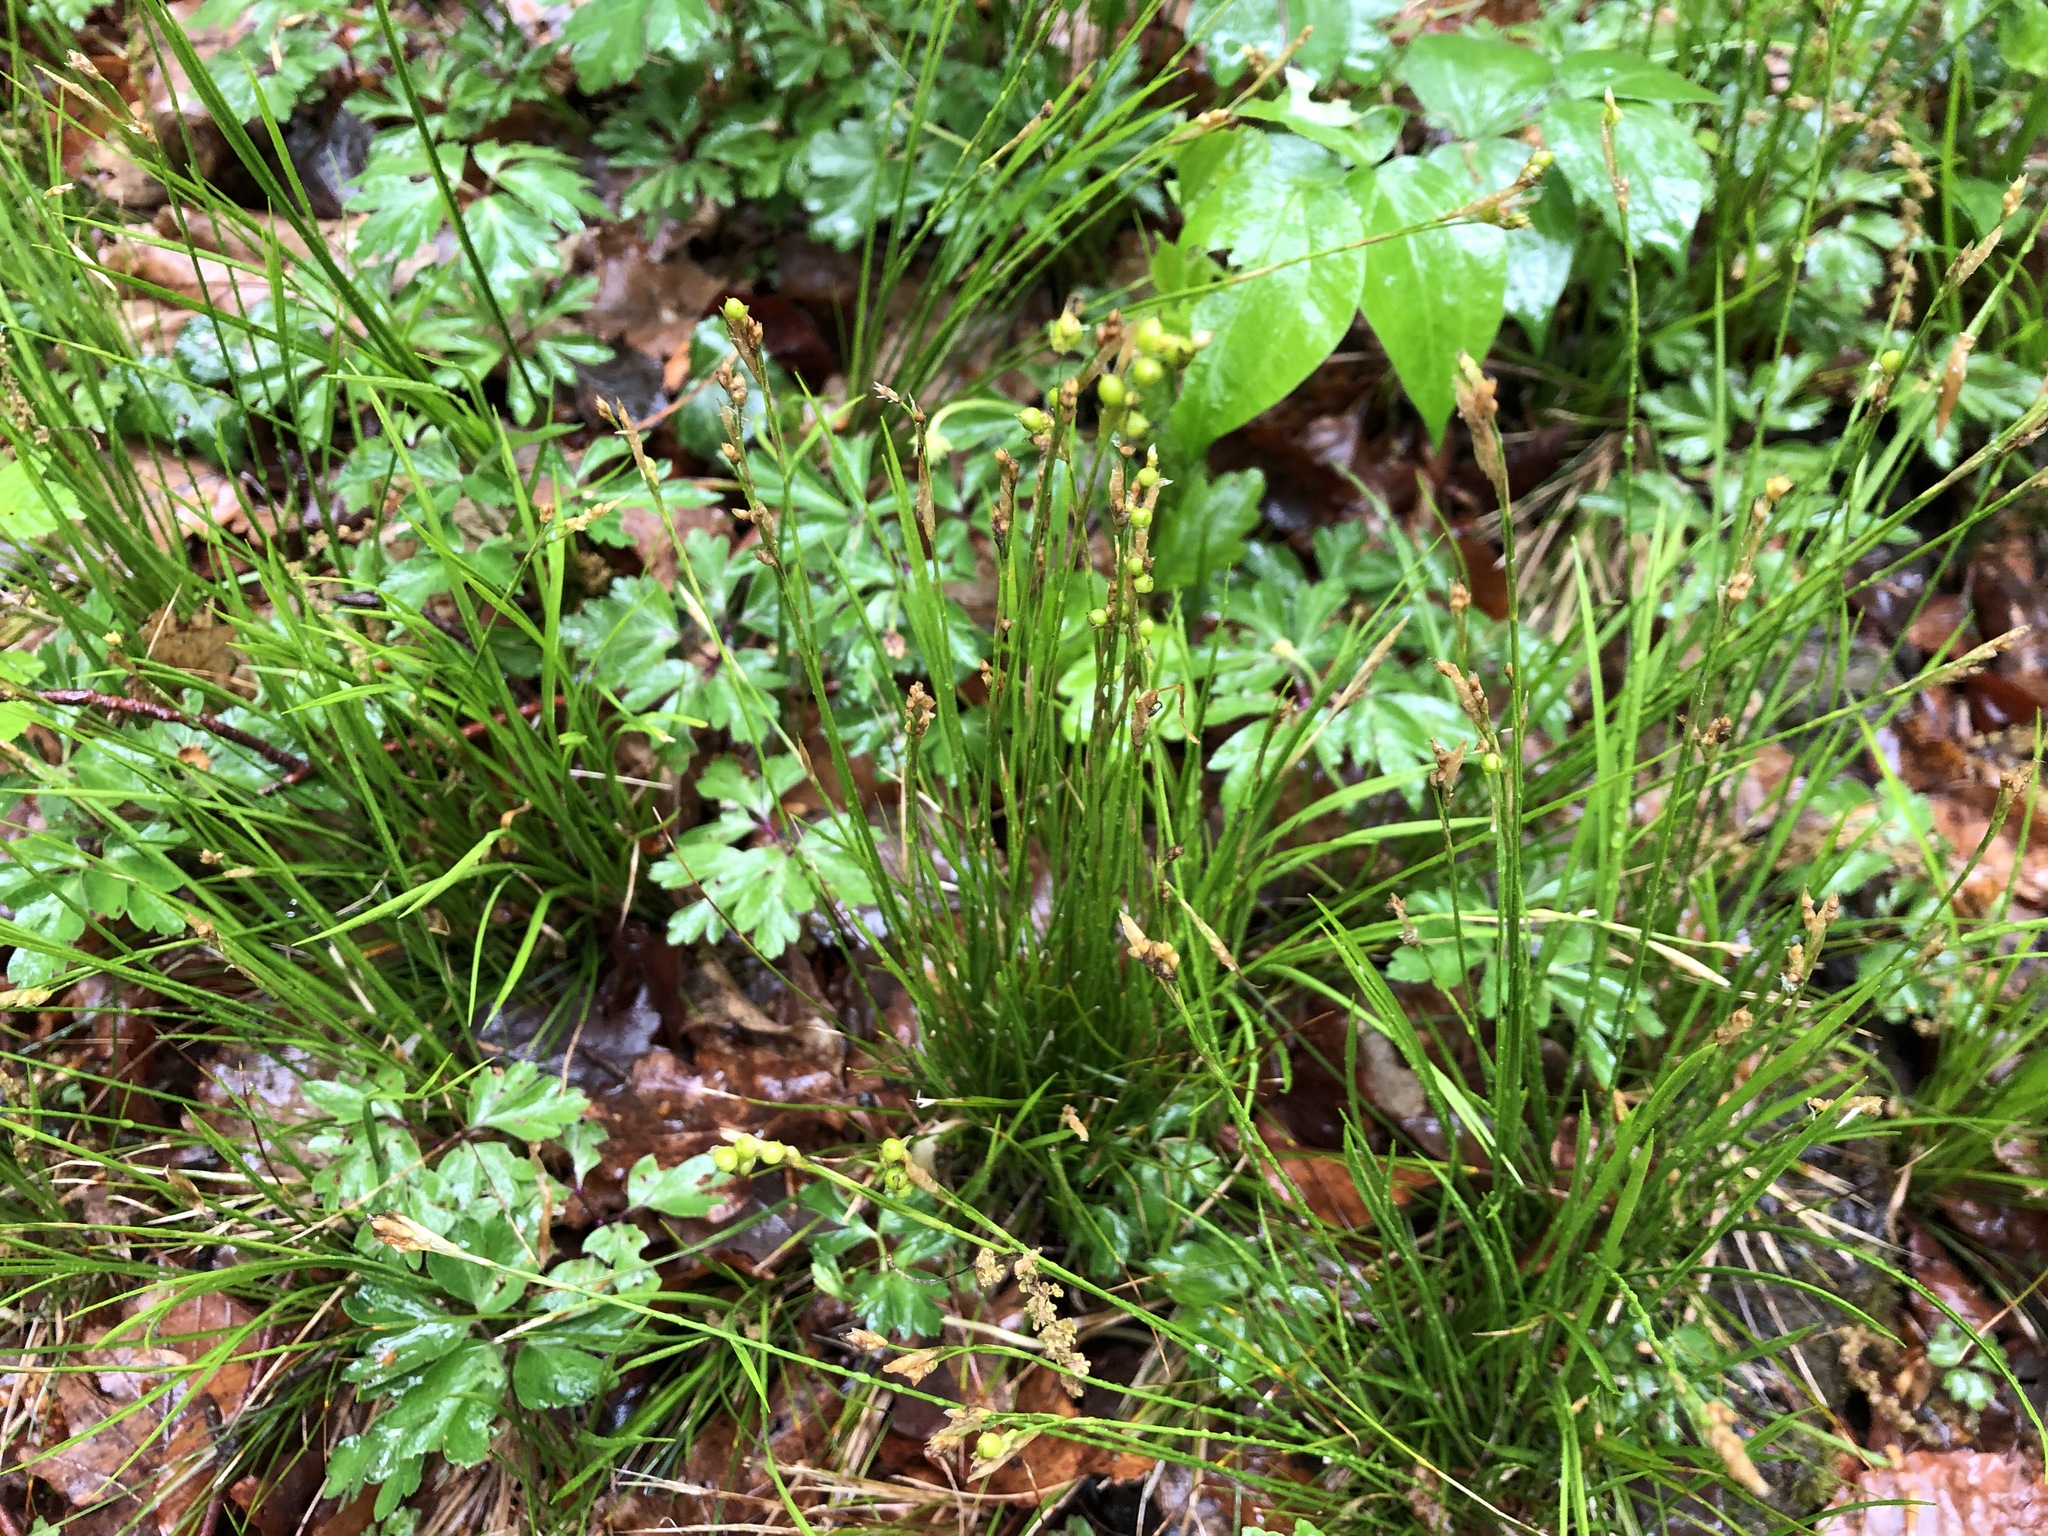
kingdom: Plantae
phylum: Tracheophyta
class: Liliopsida
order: Poales
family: Cyperaceae
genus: Carex
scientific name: Carex alba
